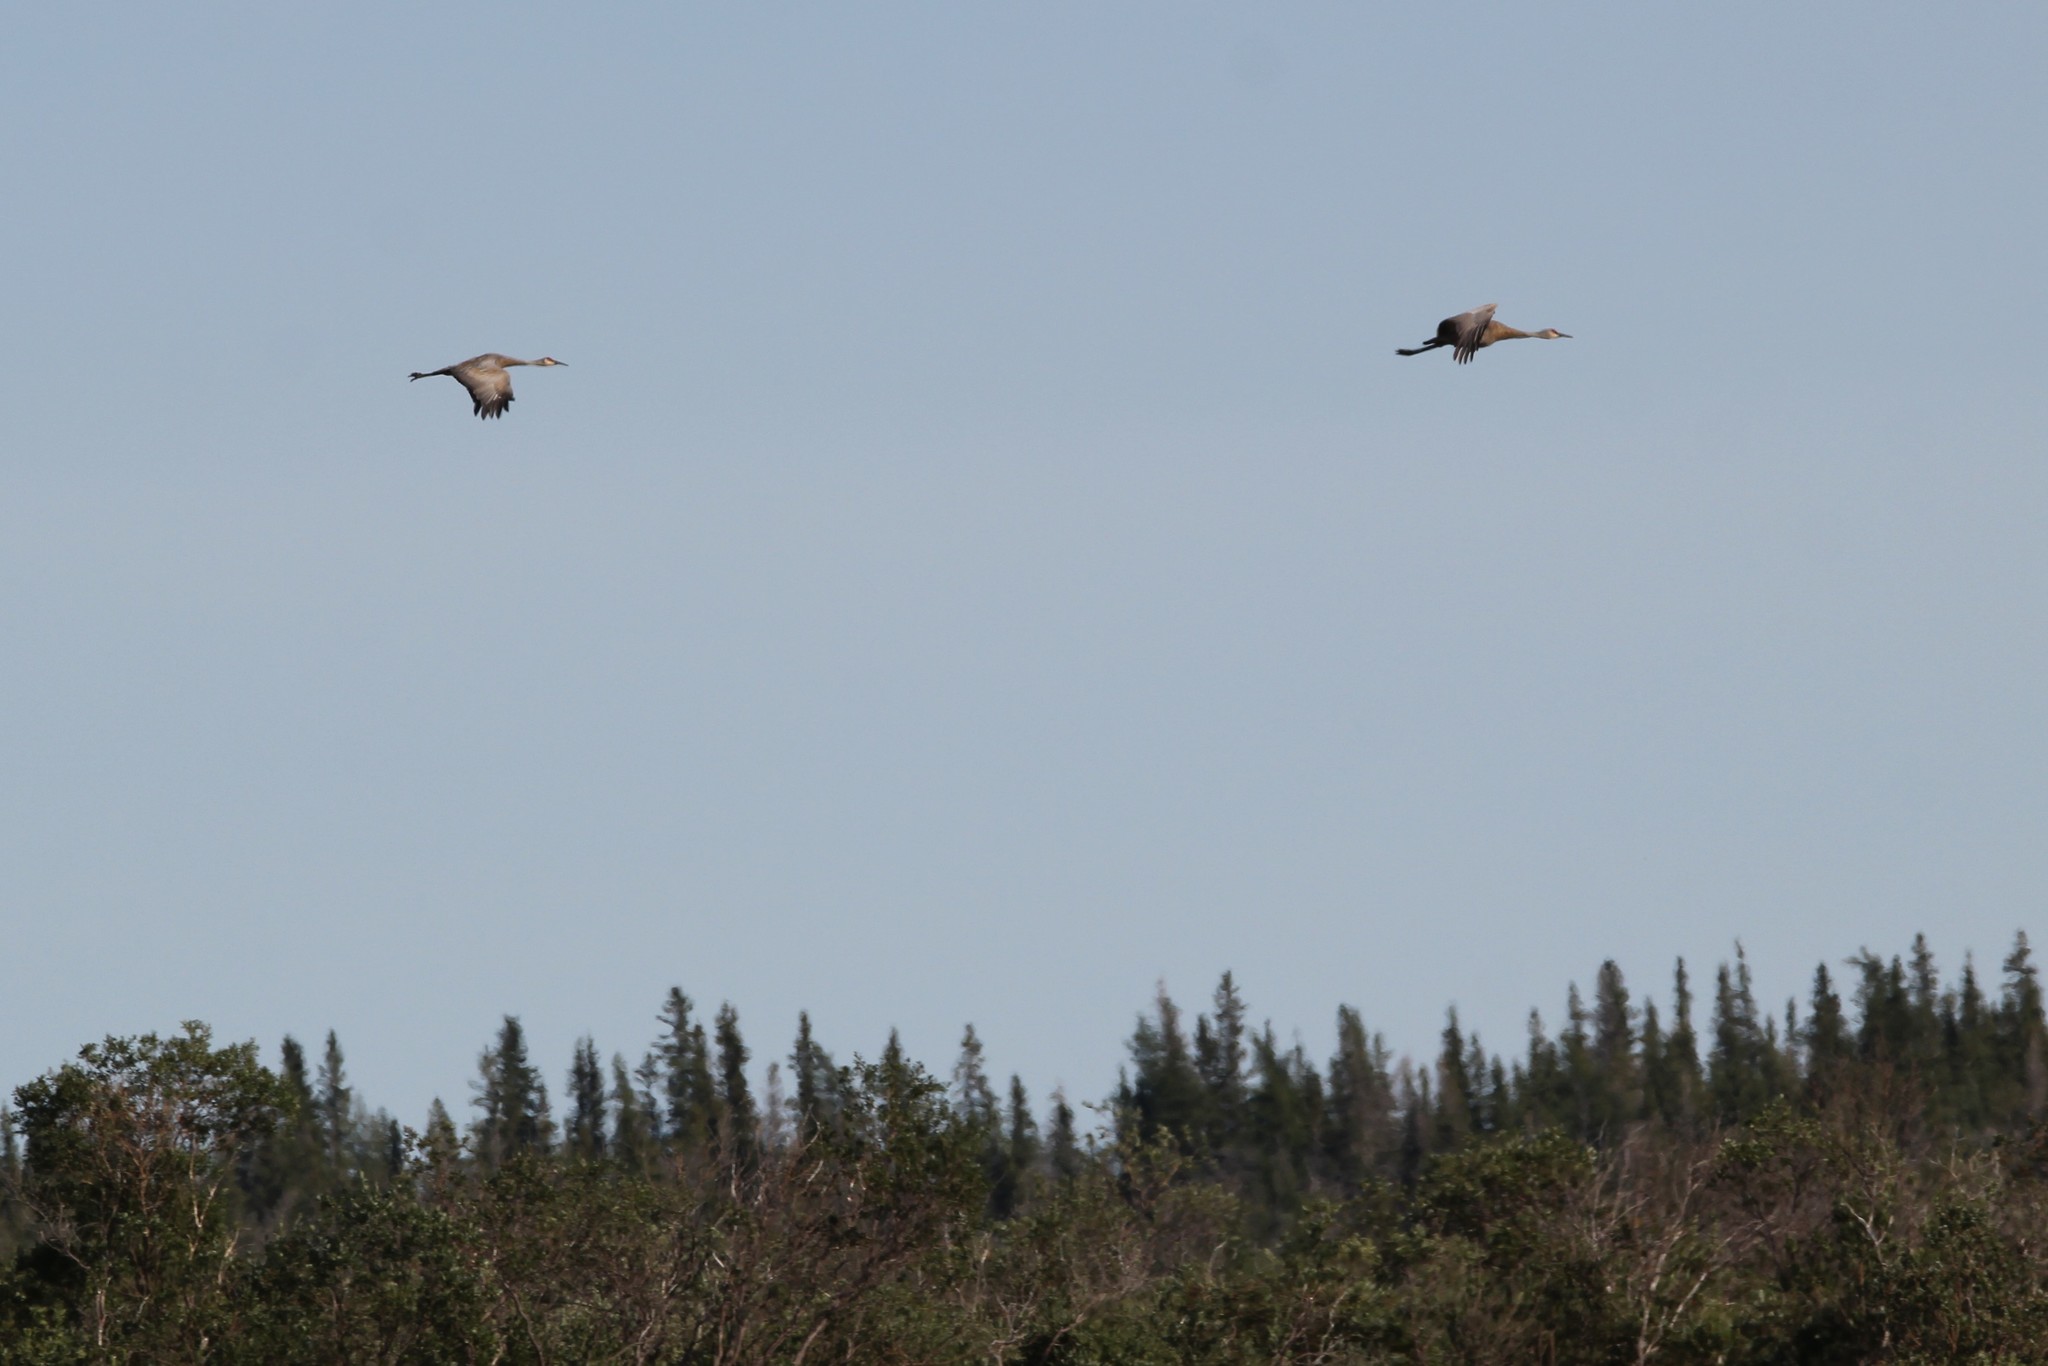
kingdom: Animalia
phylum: Chordata
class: Aves
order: Gruiformes
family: Gruidae
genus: Grus
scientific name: Grus canadensis
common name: Sandhill crane
